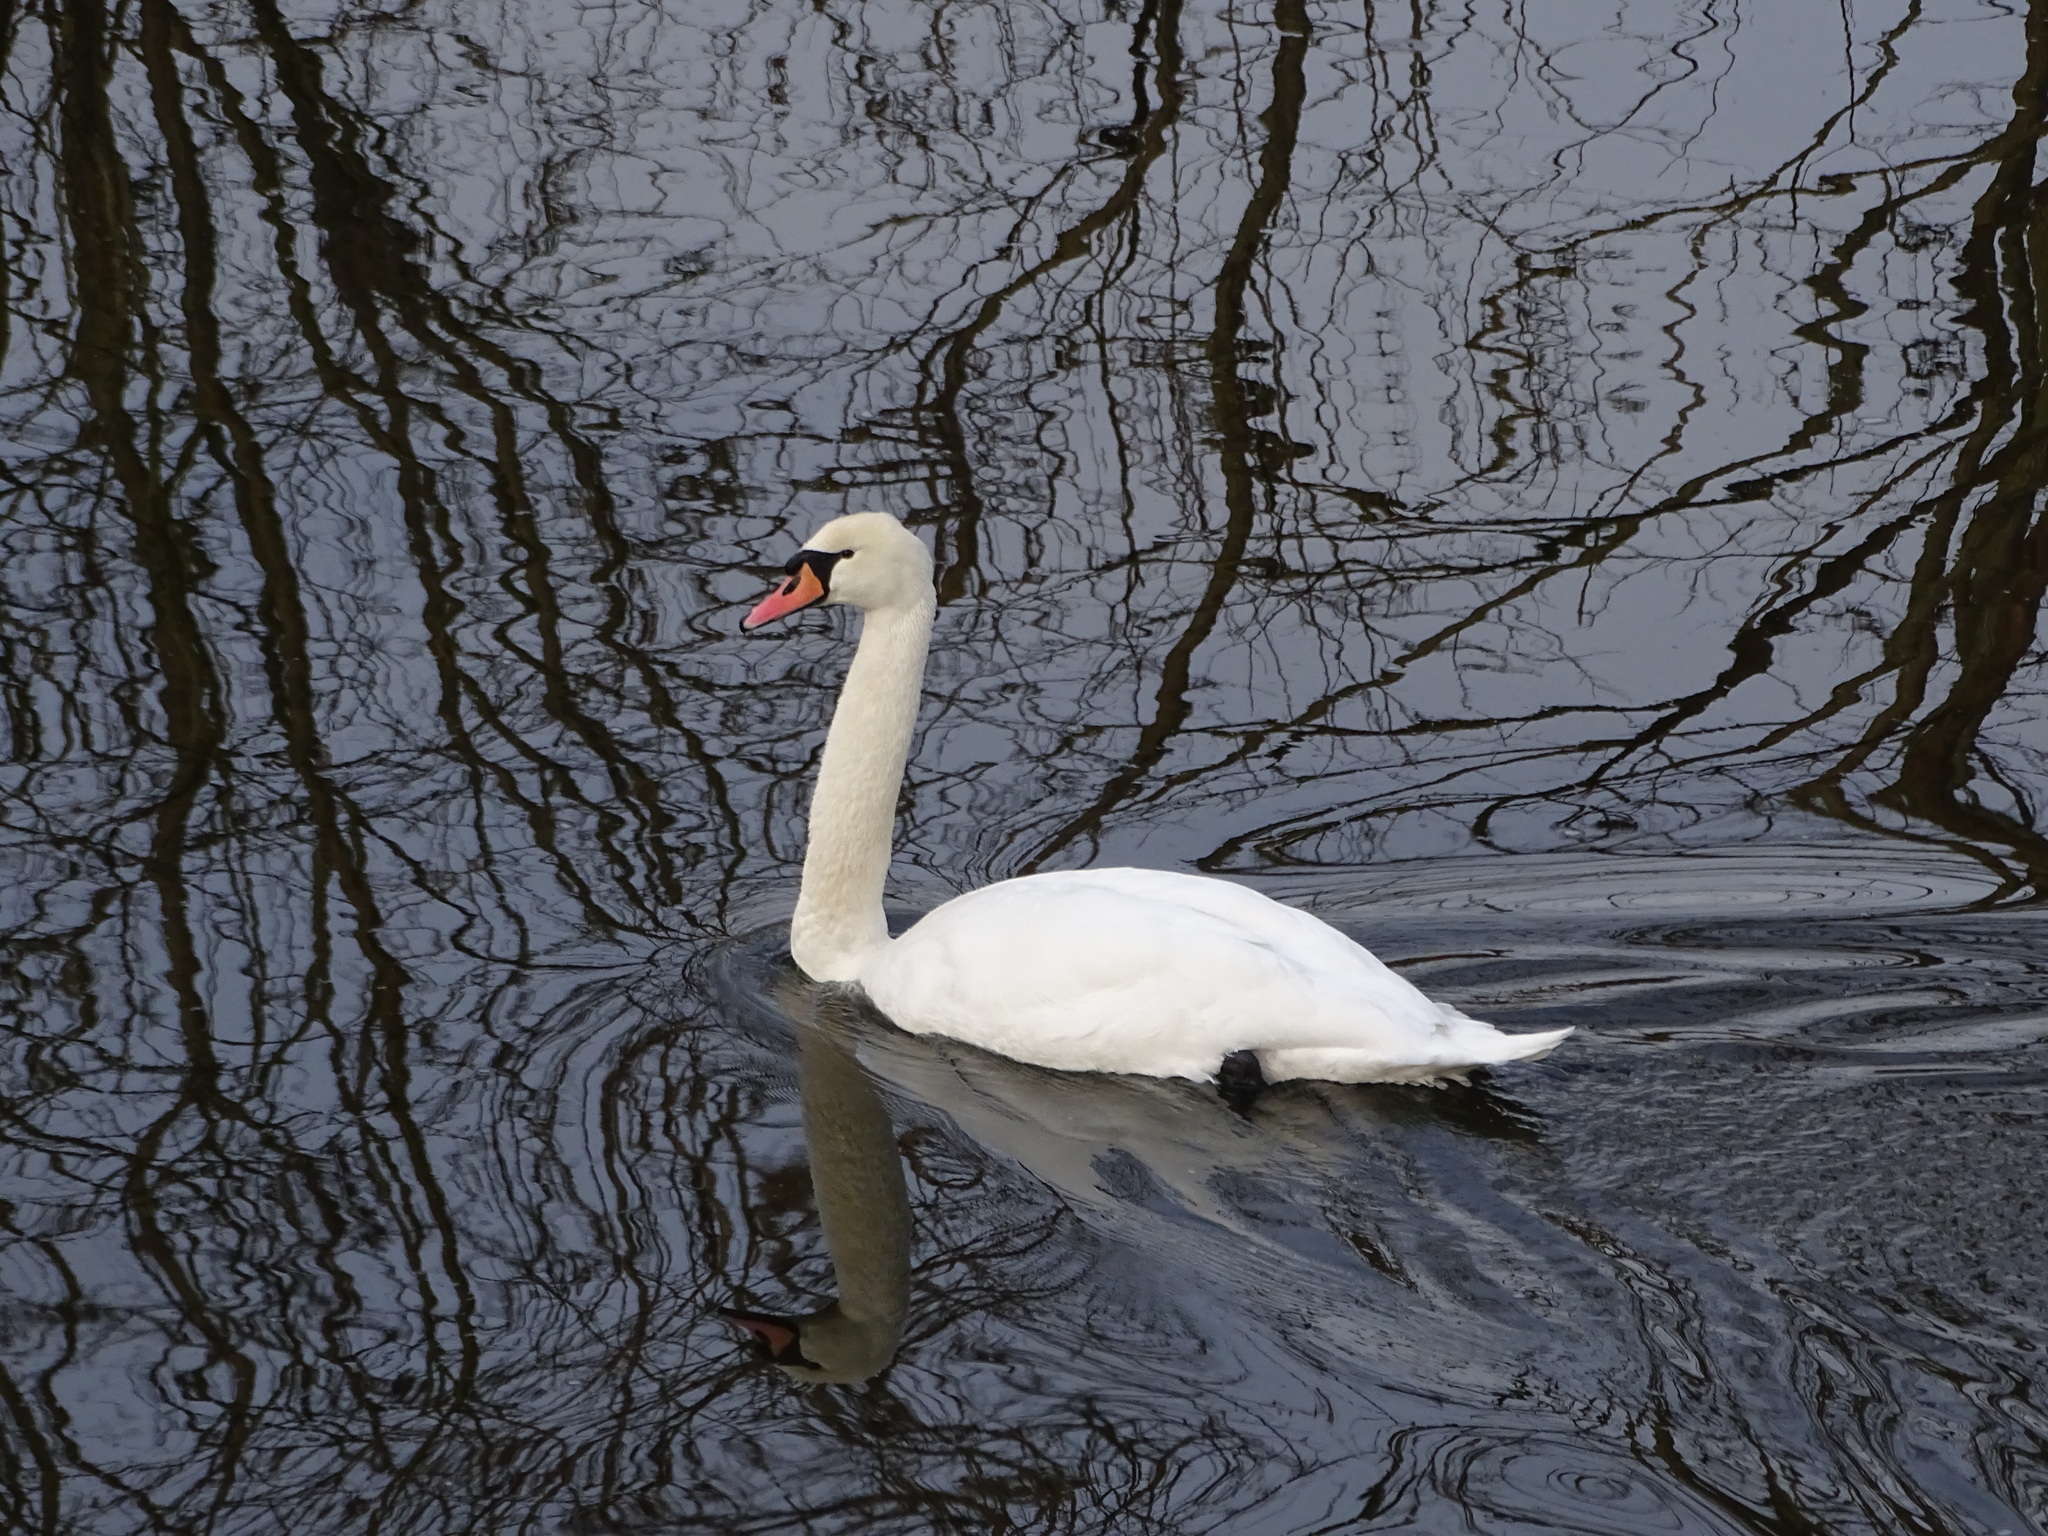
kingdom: Animalia
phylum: Chordata
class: Aves
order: Anseriformes
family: Anatidae
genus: Cygnus
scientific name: Cygnus olor
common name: Mute swan
